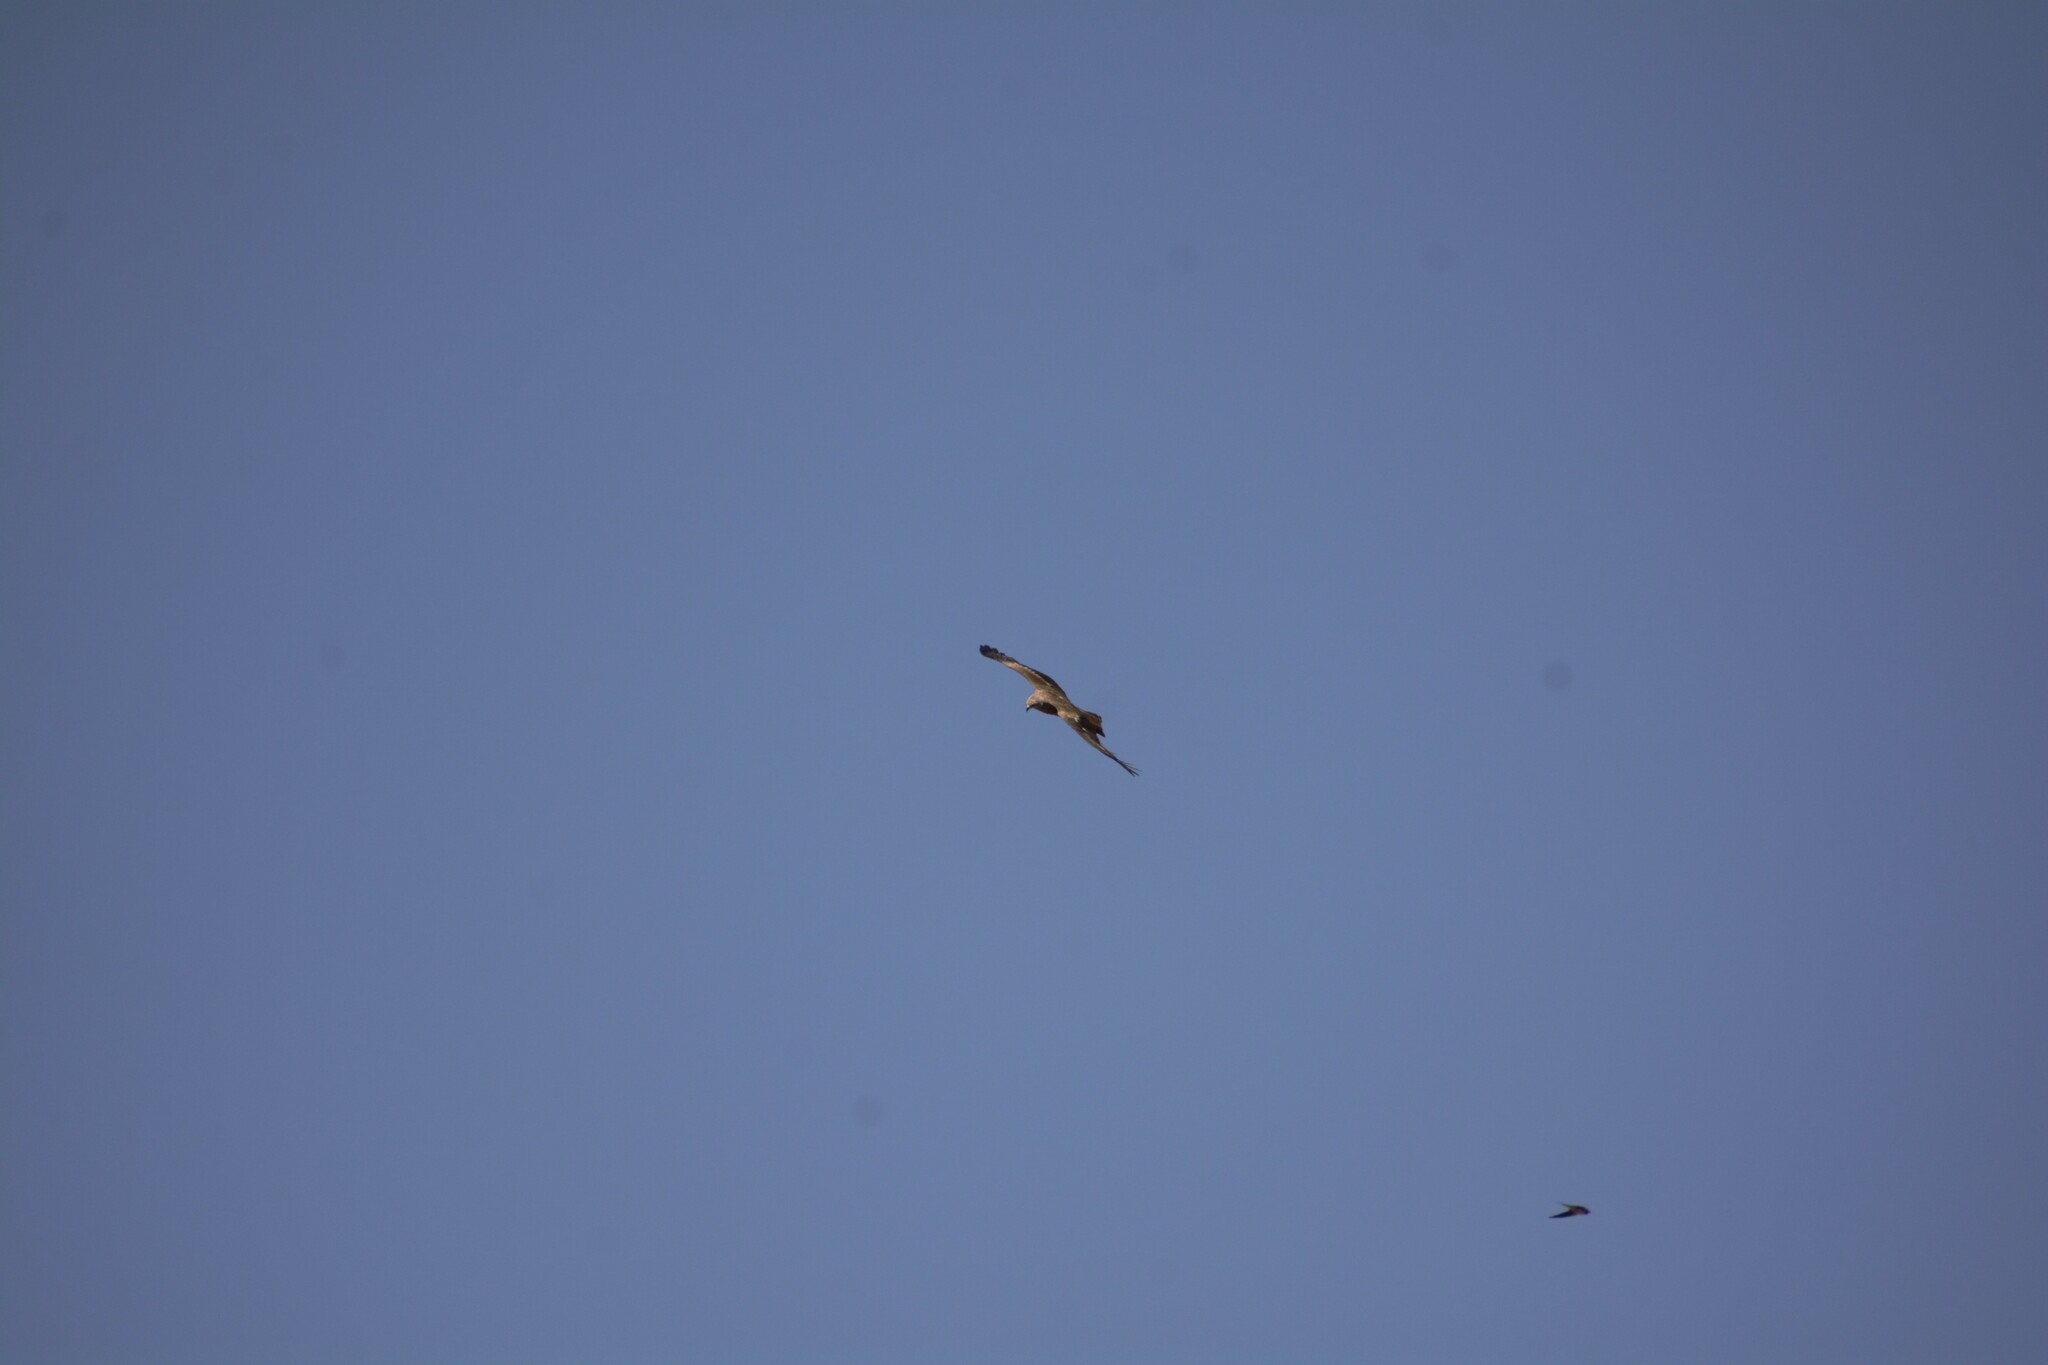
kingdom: Animalia
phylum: Chordata
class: Aves
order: Accipitriformes
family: Accipitridae
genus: Milvus
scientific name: Milvus migrans
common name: Black kite
